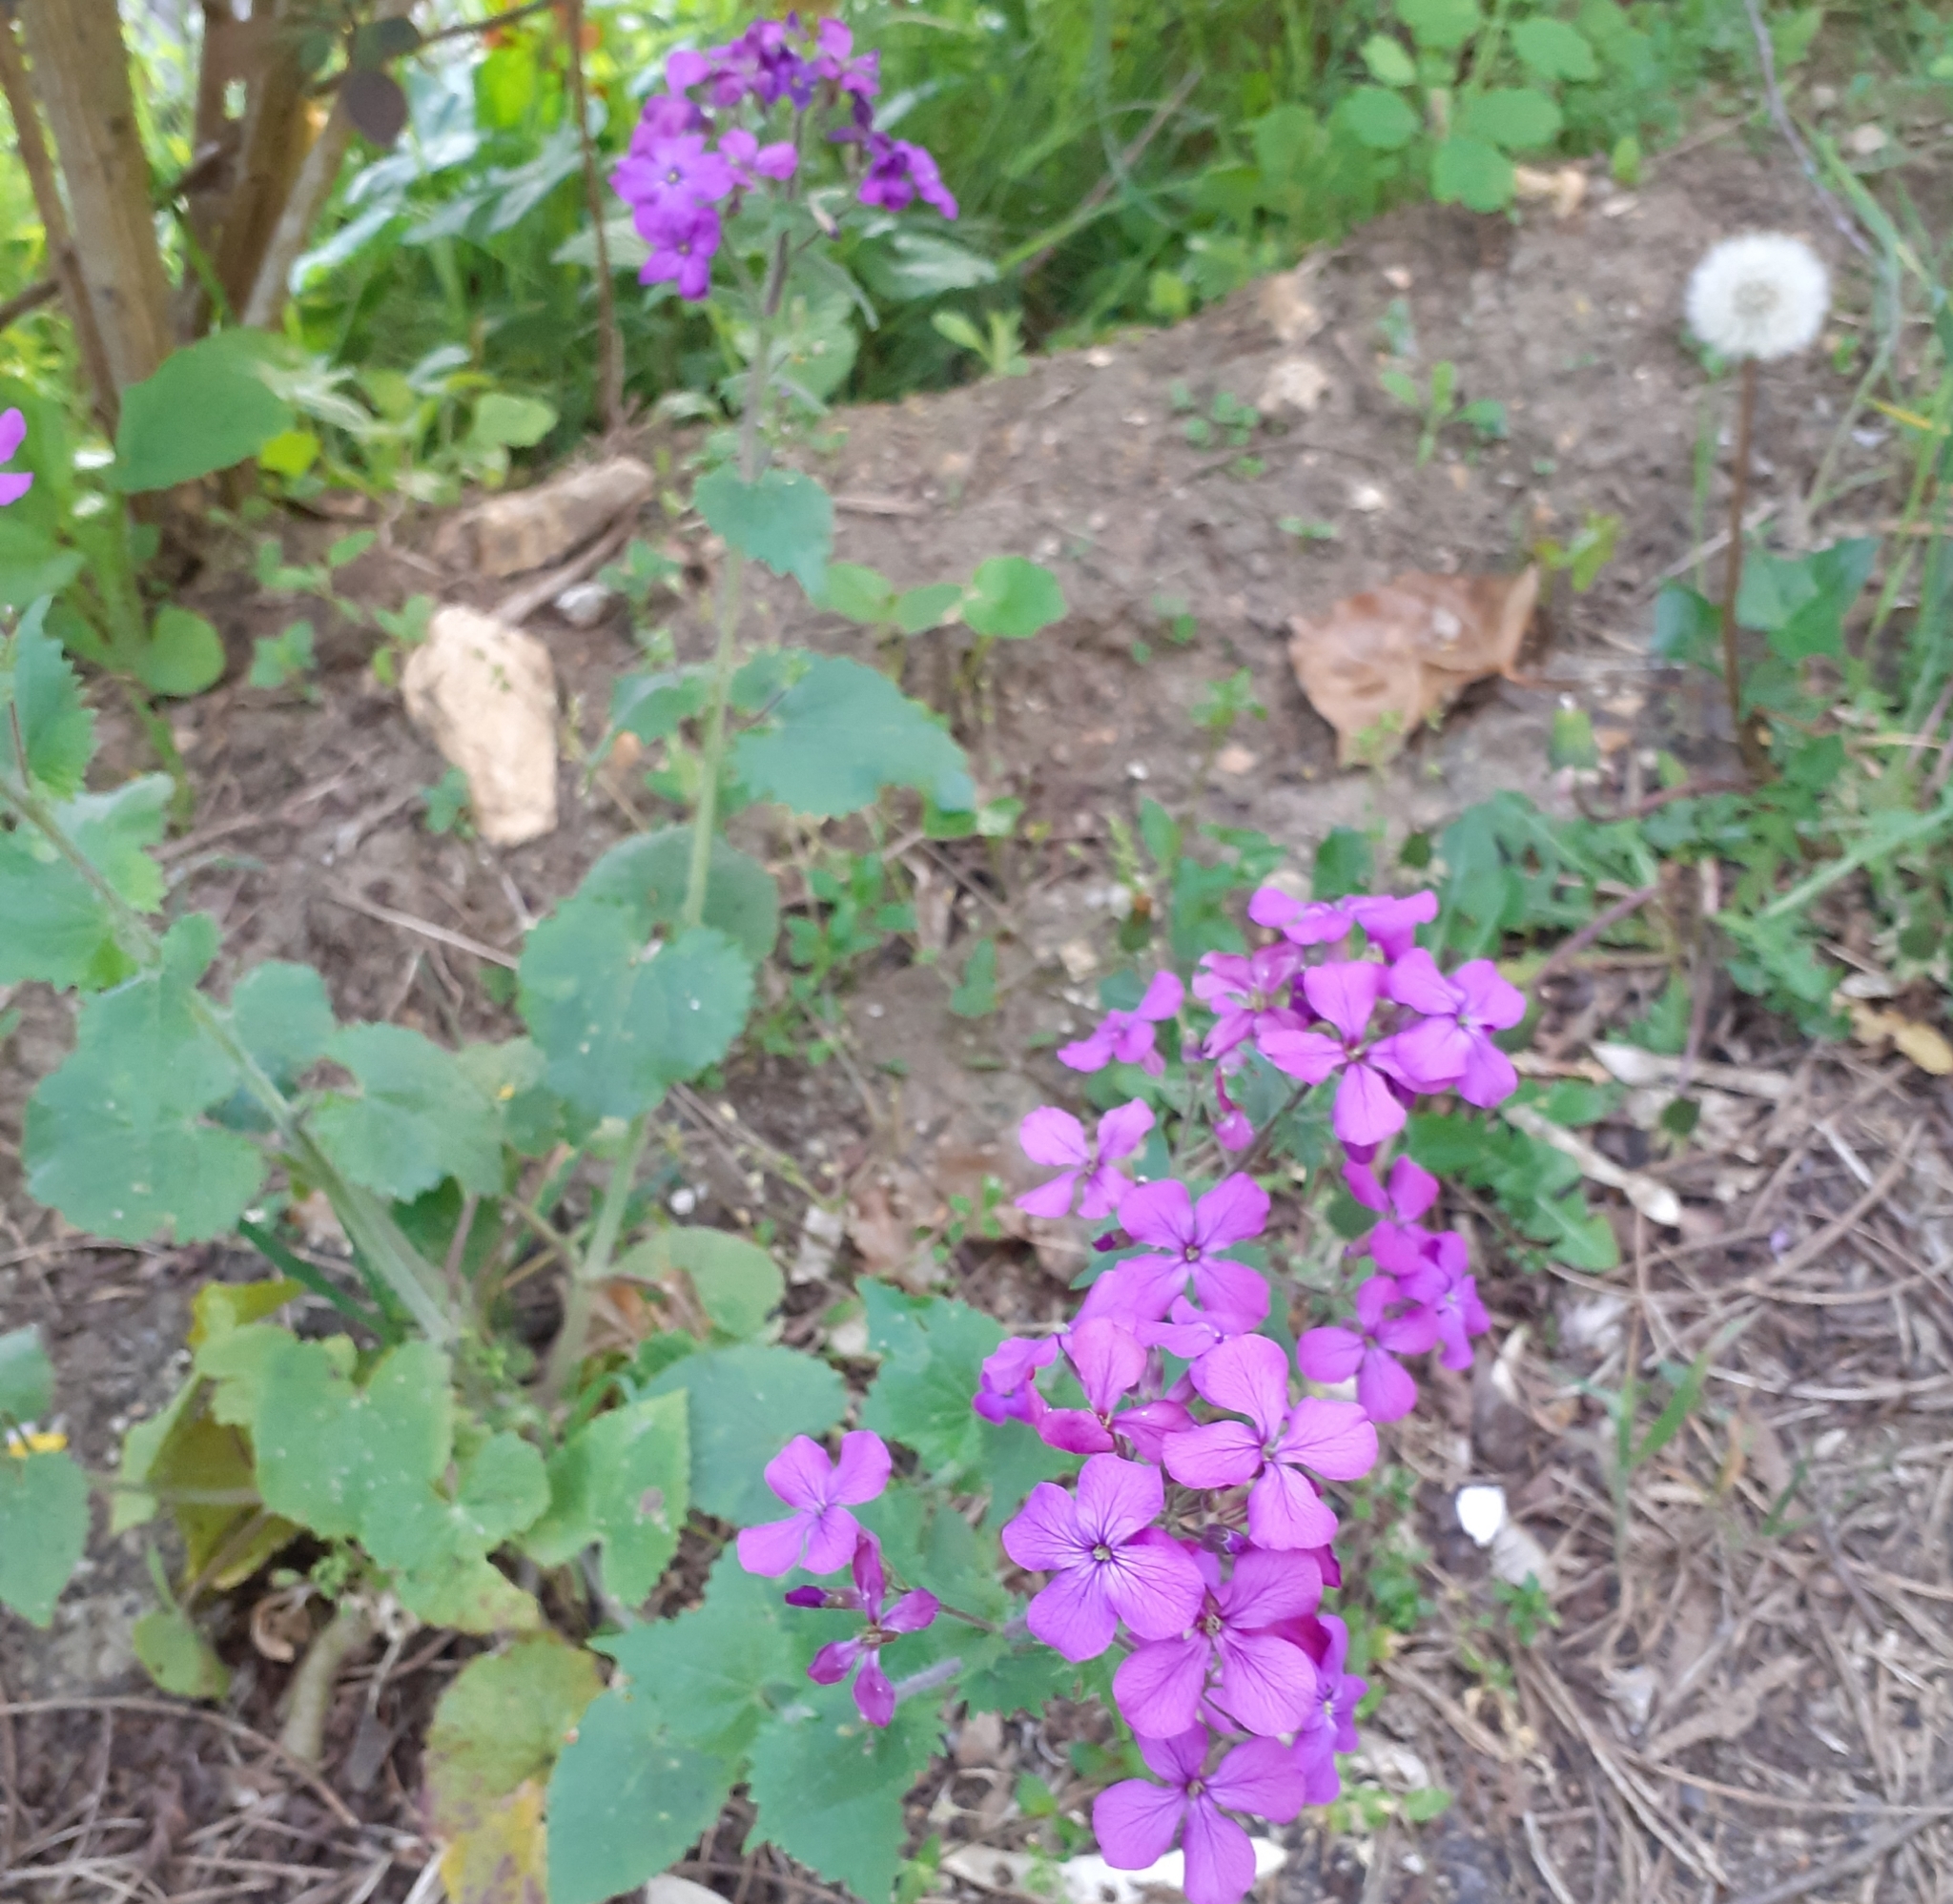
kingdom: Plantae
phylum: Tracheophyta
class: Magnoliopsida
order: Brassicales
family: Brassicaceae
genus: Lunaria
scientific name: Lunaria annua
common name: Honesty
